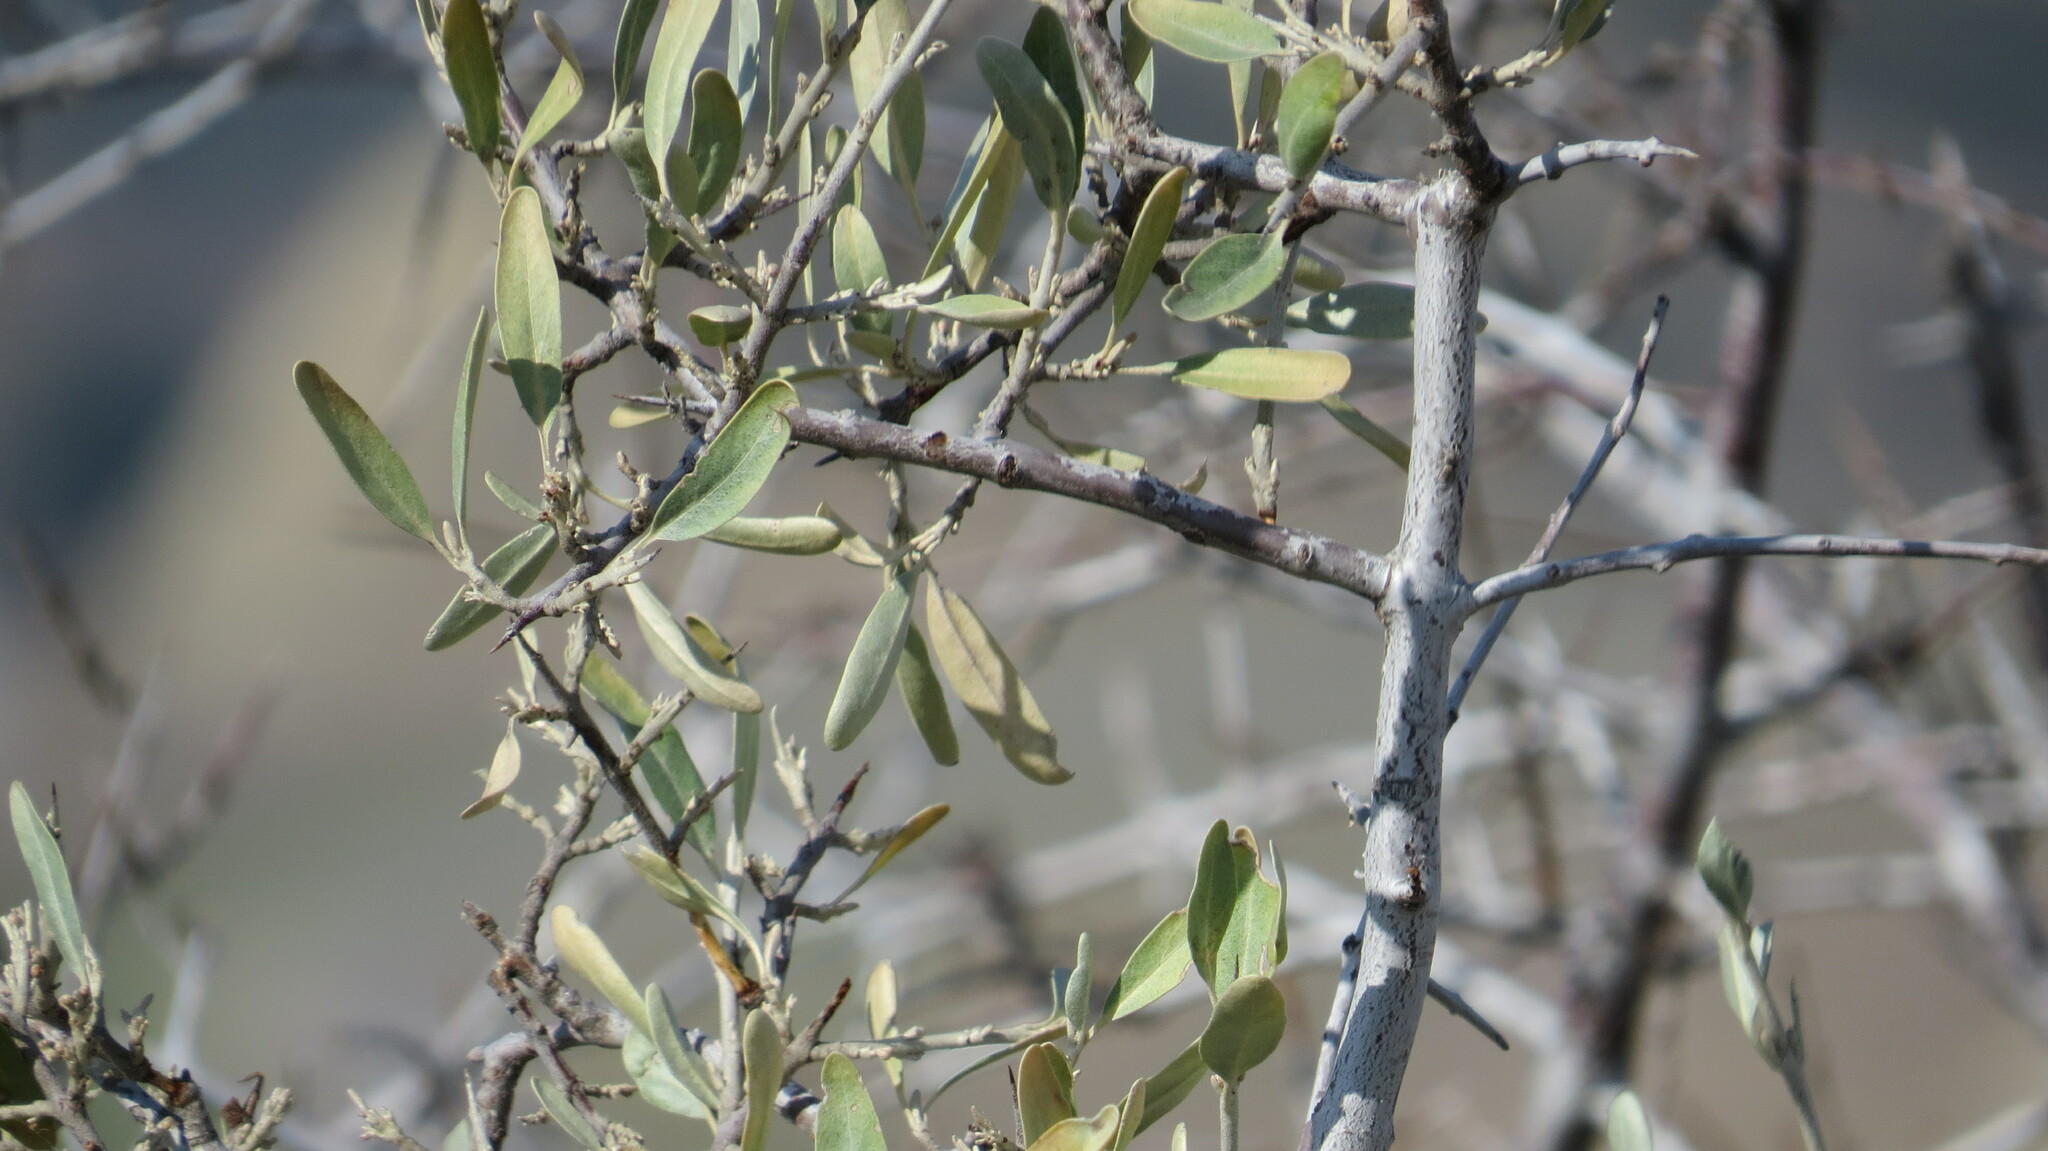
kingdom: Plantae
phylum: Tracheophyta
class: Magnoliopsida
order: Rosales
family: Elaeagnaceae
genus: Shepherdia
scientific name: Shepherdia argentea
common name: Silver buffaloberry
